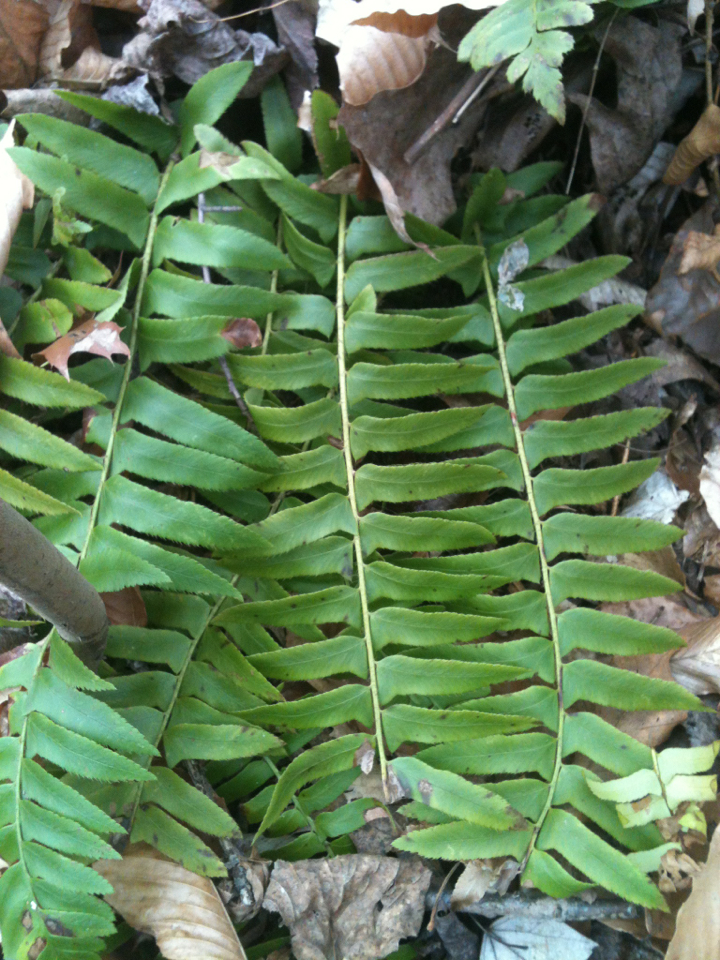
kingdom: Plantae
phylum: Tracheophyta
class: Polypodiopsida
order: Polypodiales
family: Dryopteridaceae
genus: Polystichum
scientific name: Polystichum acrostichoides
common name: Christmas fern
